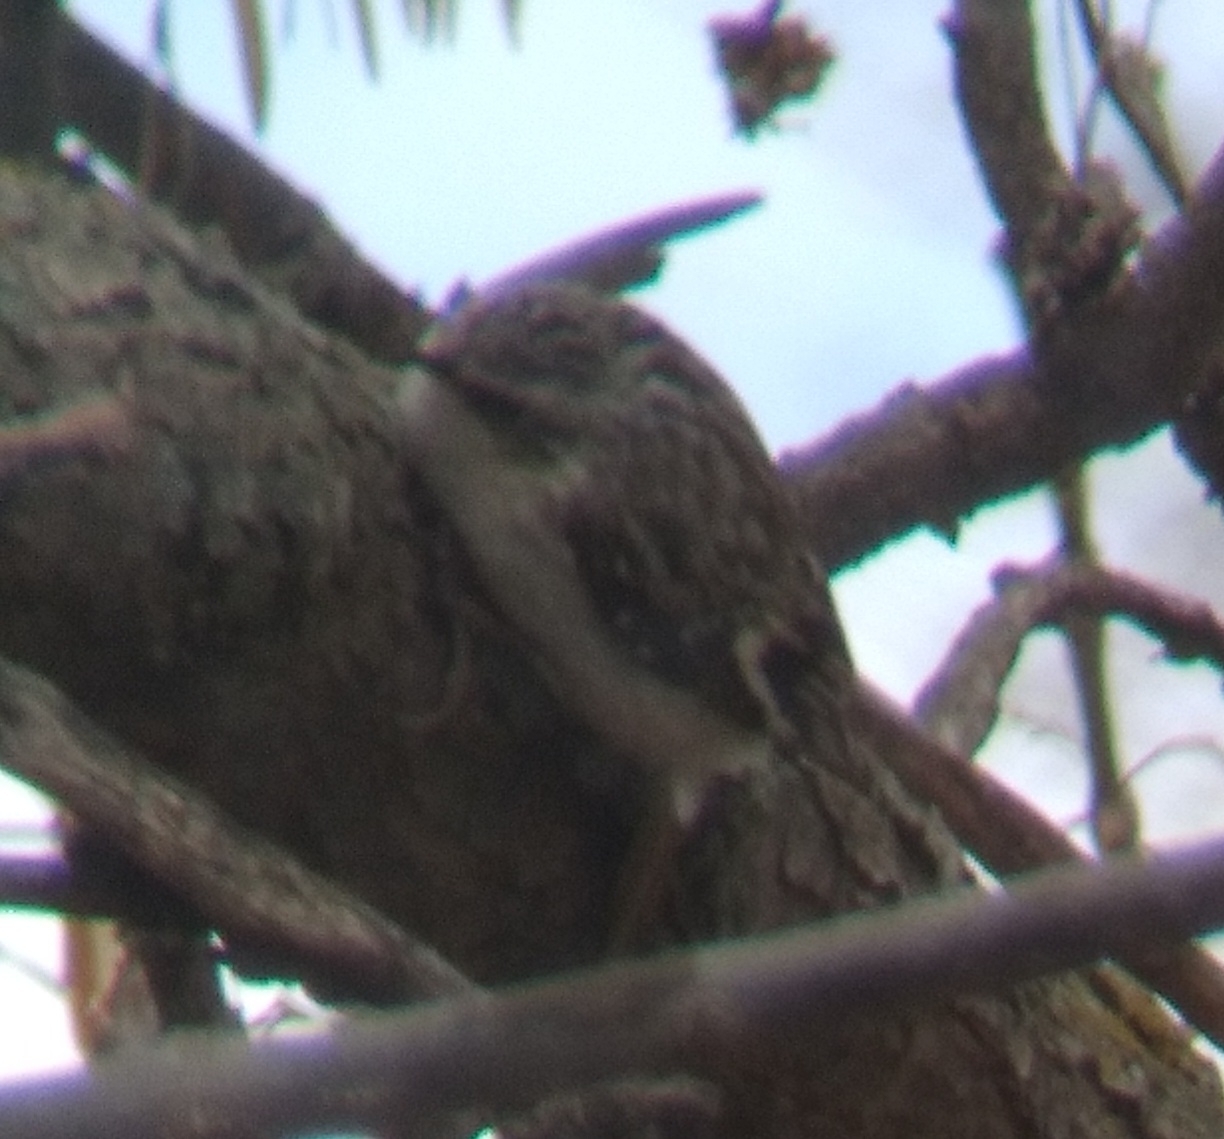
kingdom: Animalia
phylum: Chordata
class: Aves
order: Passeriformes
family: Certhiidae
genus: Certhia
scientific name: Certhia americana
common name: Brown creeper
